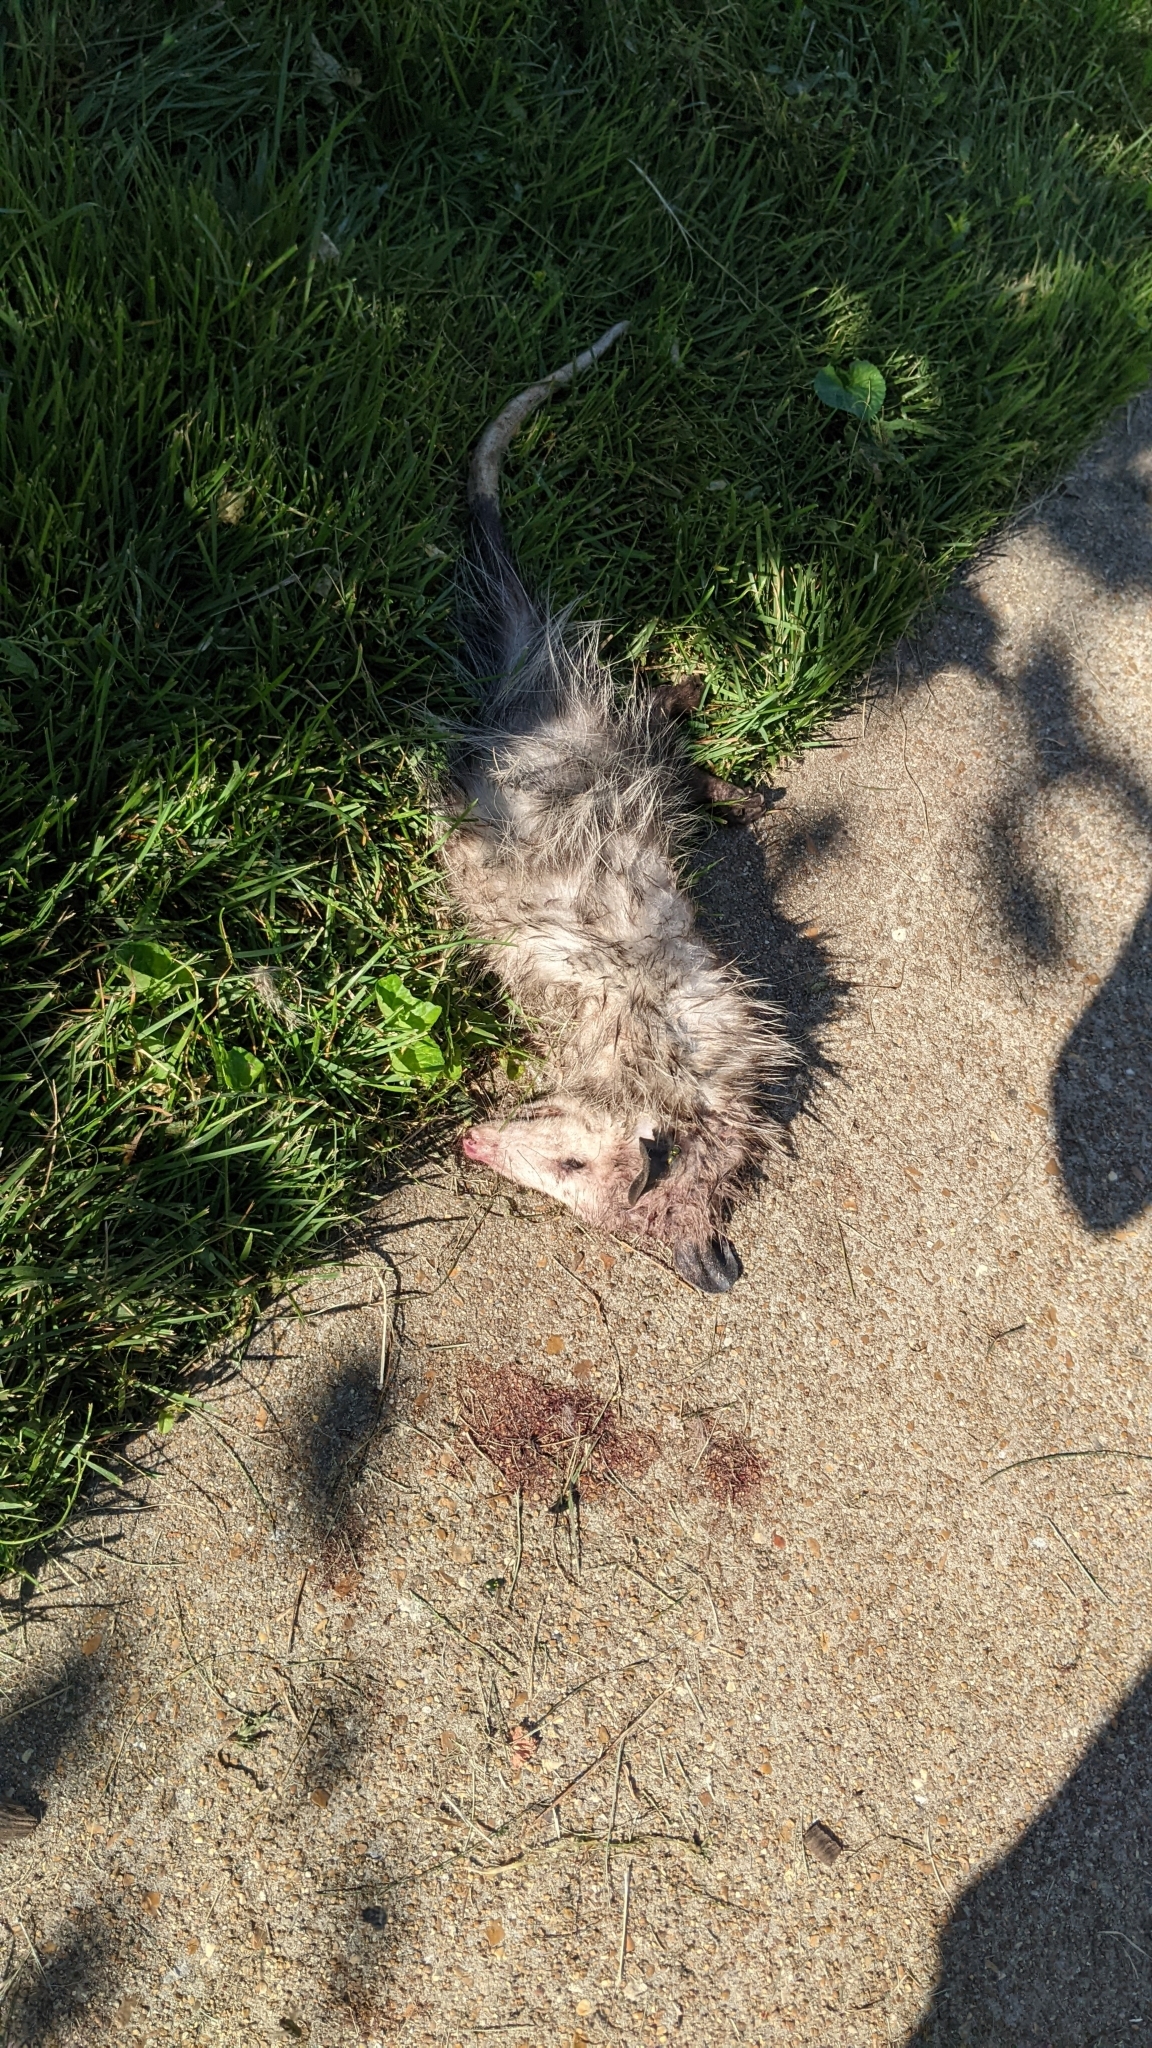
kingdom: Animalia
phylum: Chordata
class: Mammalia
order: Didelphimorphia
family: Didelphidae
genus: Didelphis
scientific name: Didelphis virginiana
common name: Virginia opossum
